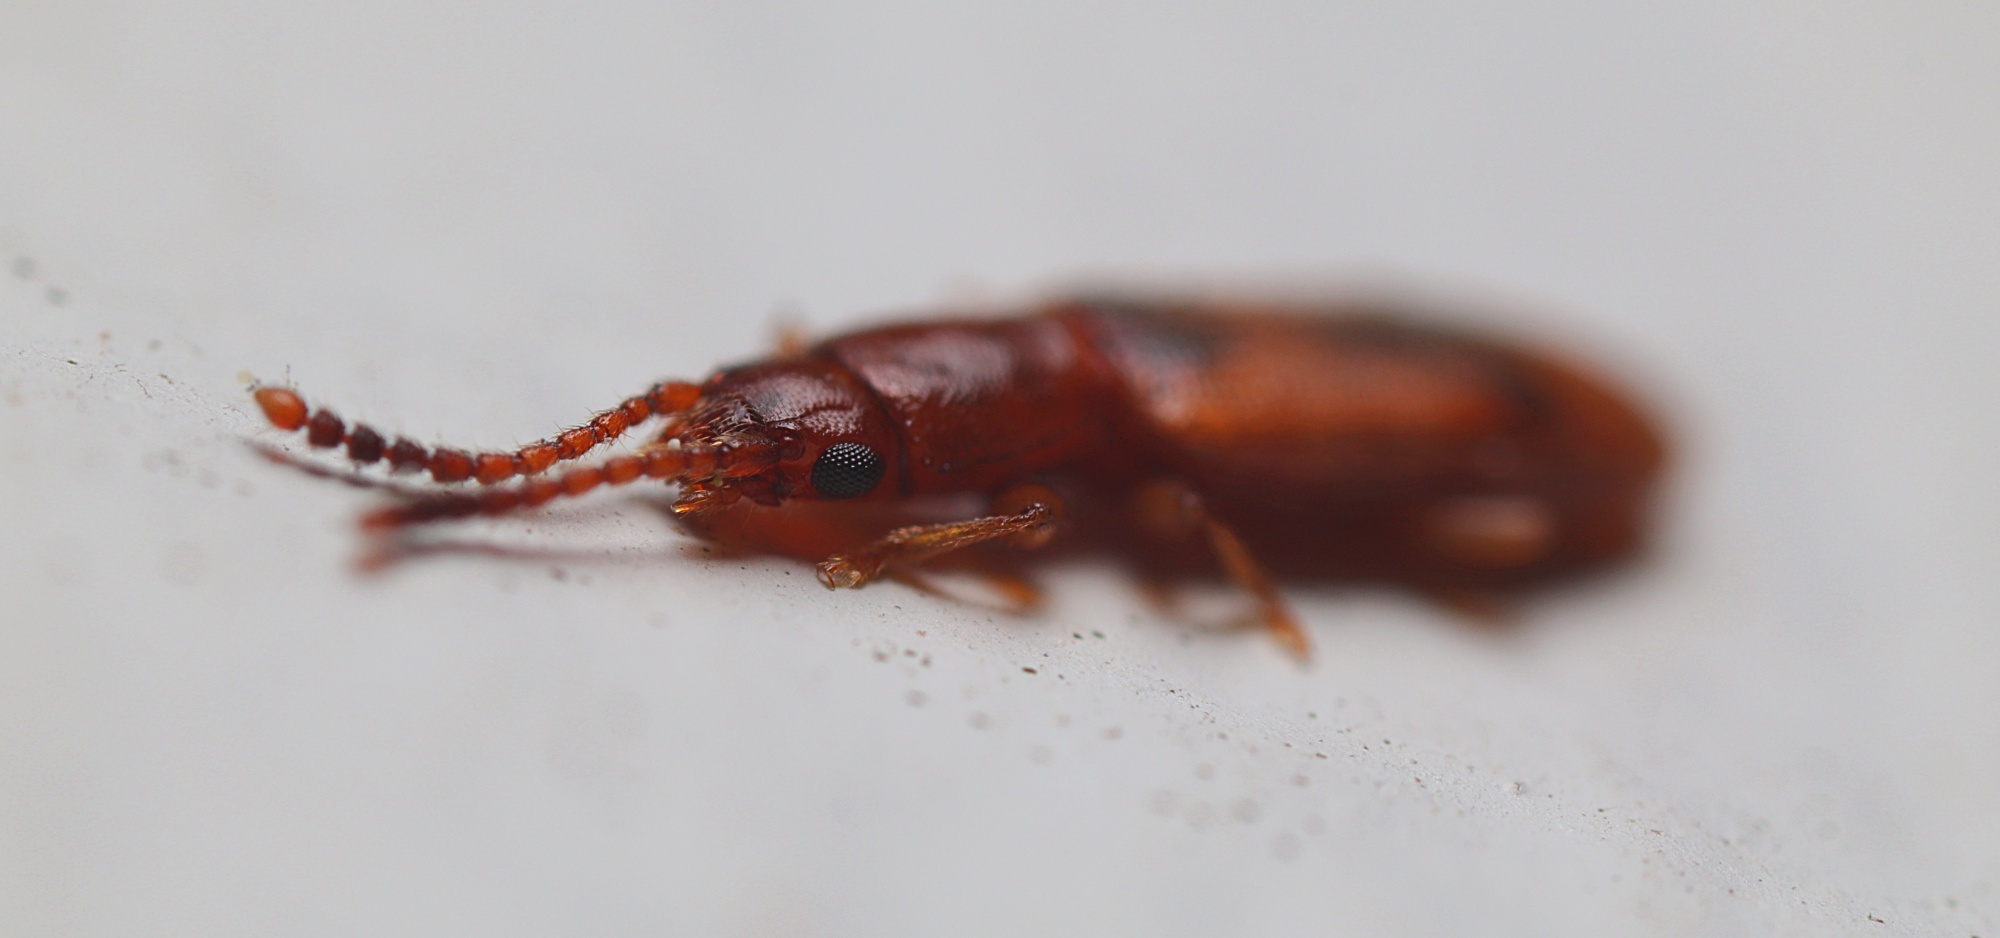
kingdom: Animalia
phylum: Arthropoda
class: Insecta
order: Coleoptera
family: Silvanidae
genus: Cryptamorpha
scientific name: Cryptamorpha desjardinsi
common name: Cryptamorpha
